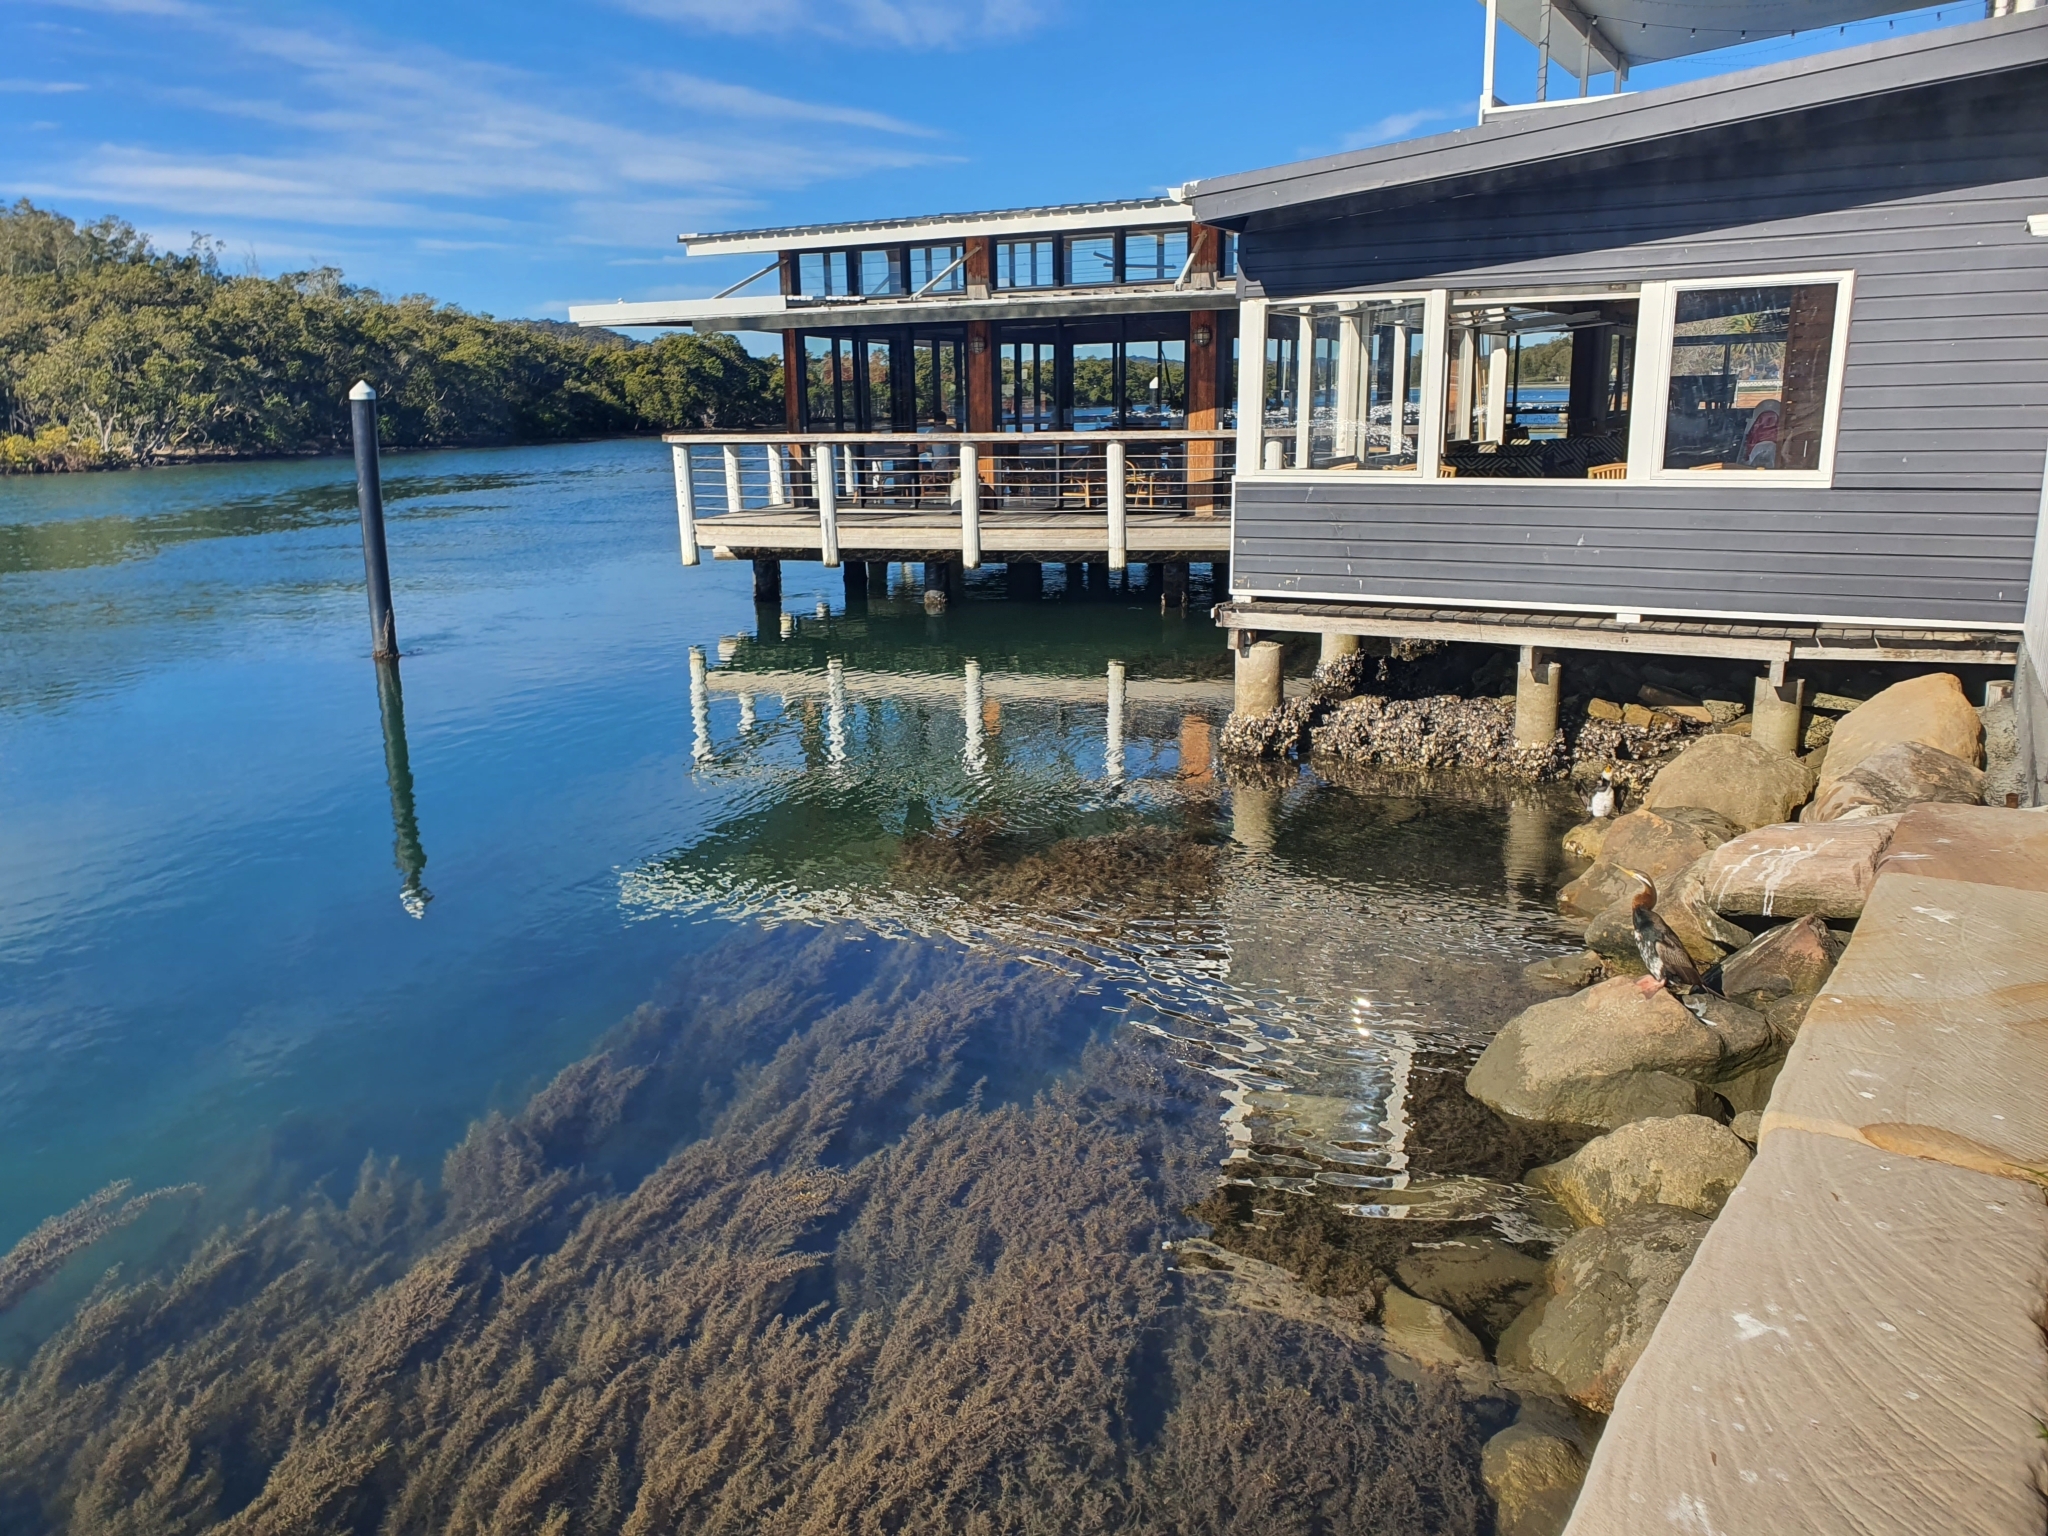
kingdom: Animalia
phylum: Chordata
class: Aves
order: Suliformes
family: Anhingidae
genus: Anhinga
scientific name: Anhinga novaehollandiae
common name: Australasian darter
